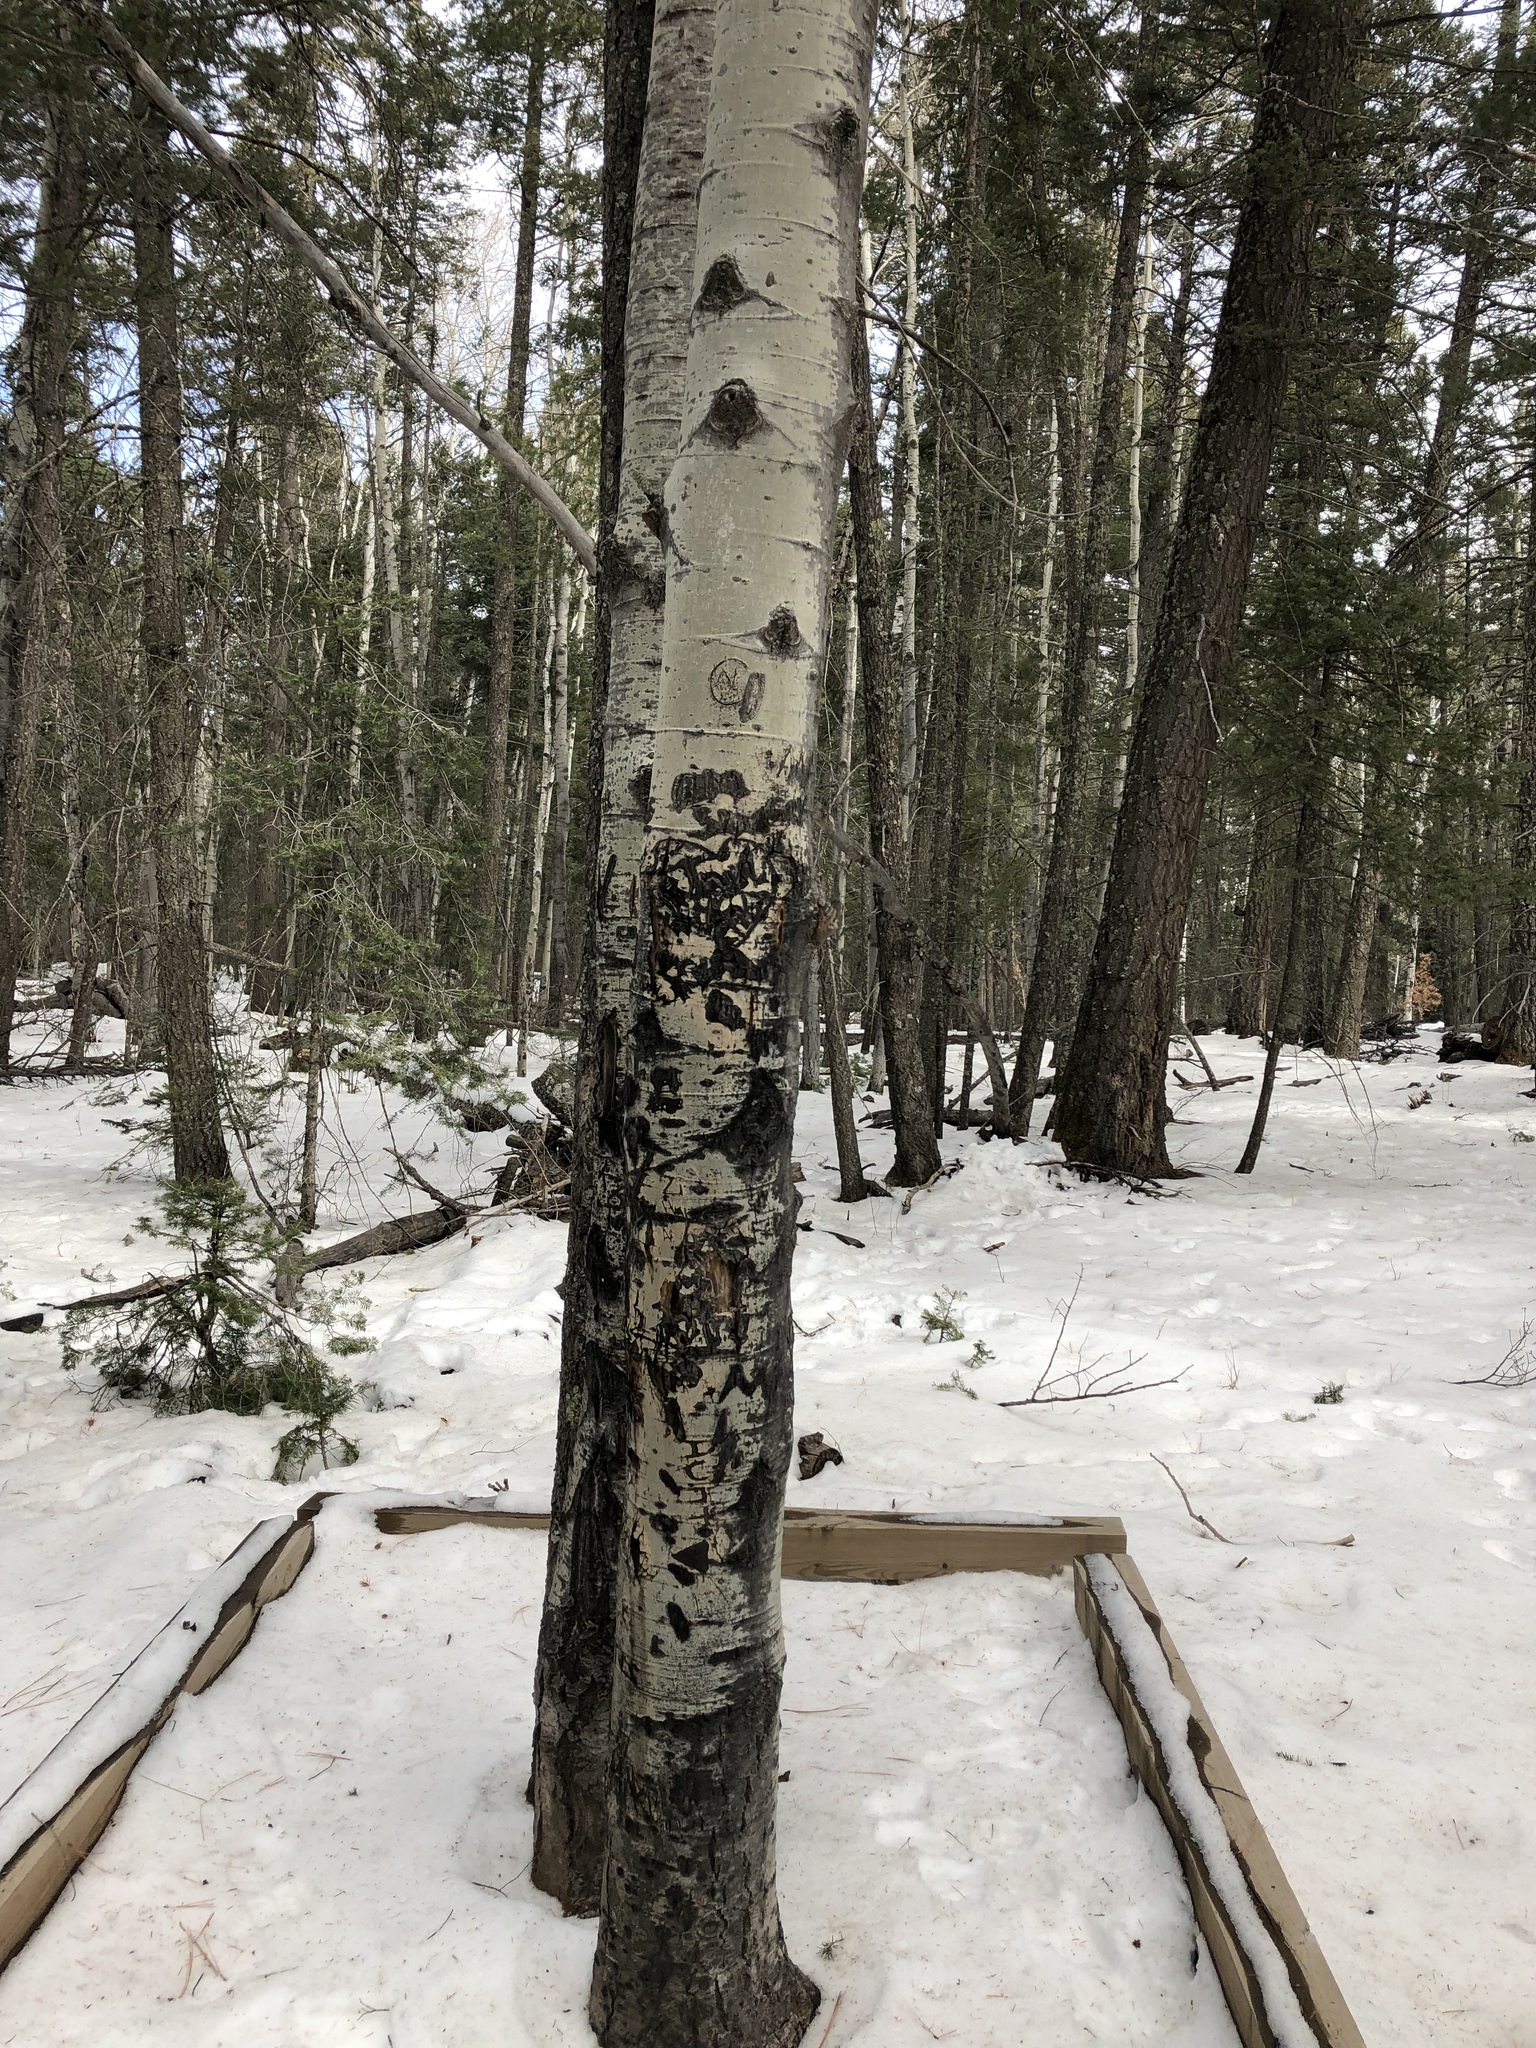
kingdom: Plantae
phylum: Tracheophyta
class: Magnoliopsida
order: Malpighiales
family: Salicaceae
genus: Populus
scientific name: Populus tremuloides
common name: Quaking aspen
